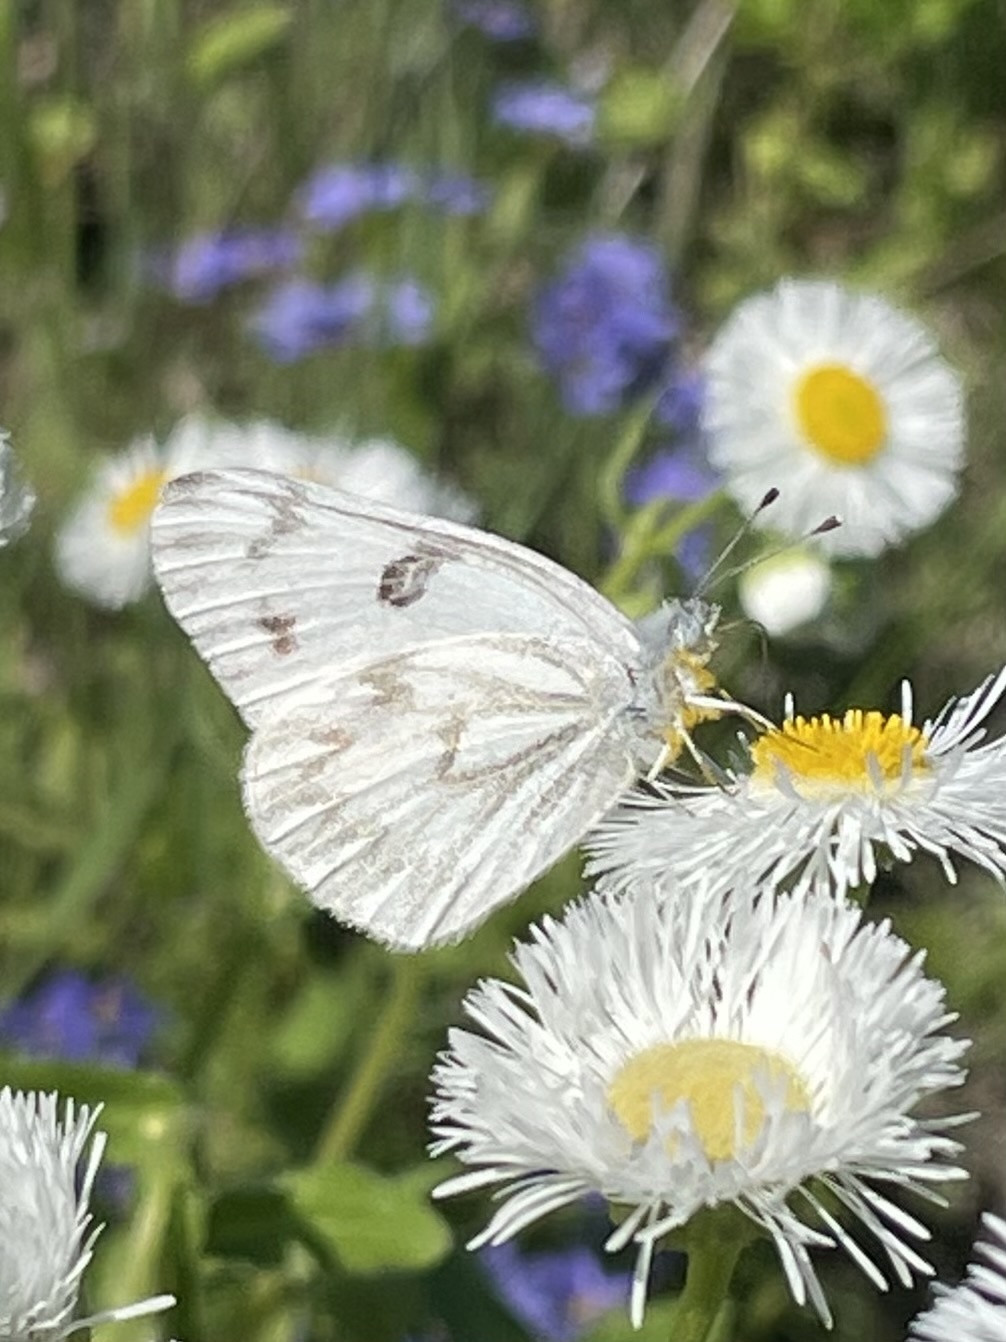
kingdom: Animalia
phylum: Arthropoda
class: Insecta
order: Lepidoptera
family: Pieridae
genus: Pontia
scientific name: Pontia protodice
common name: Checkered white
